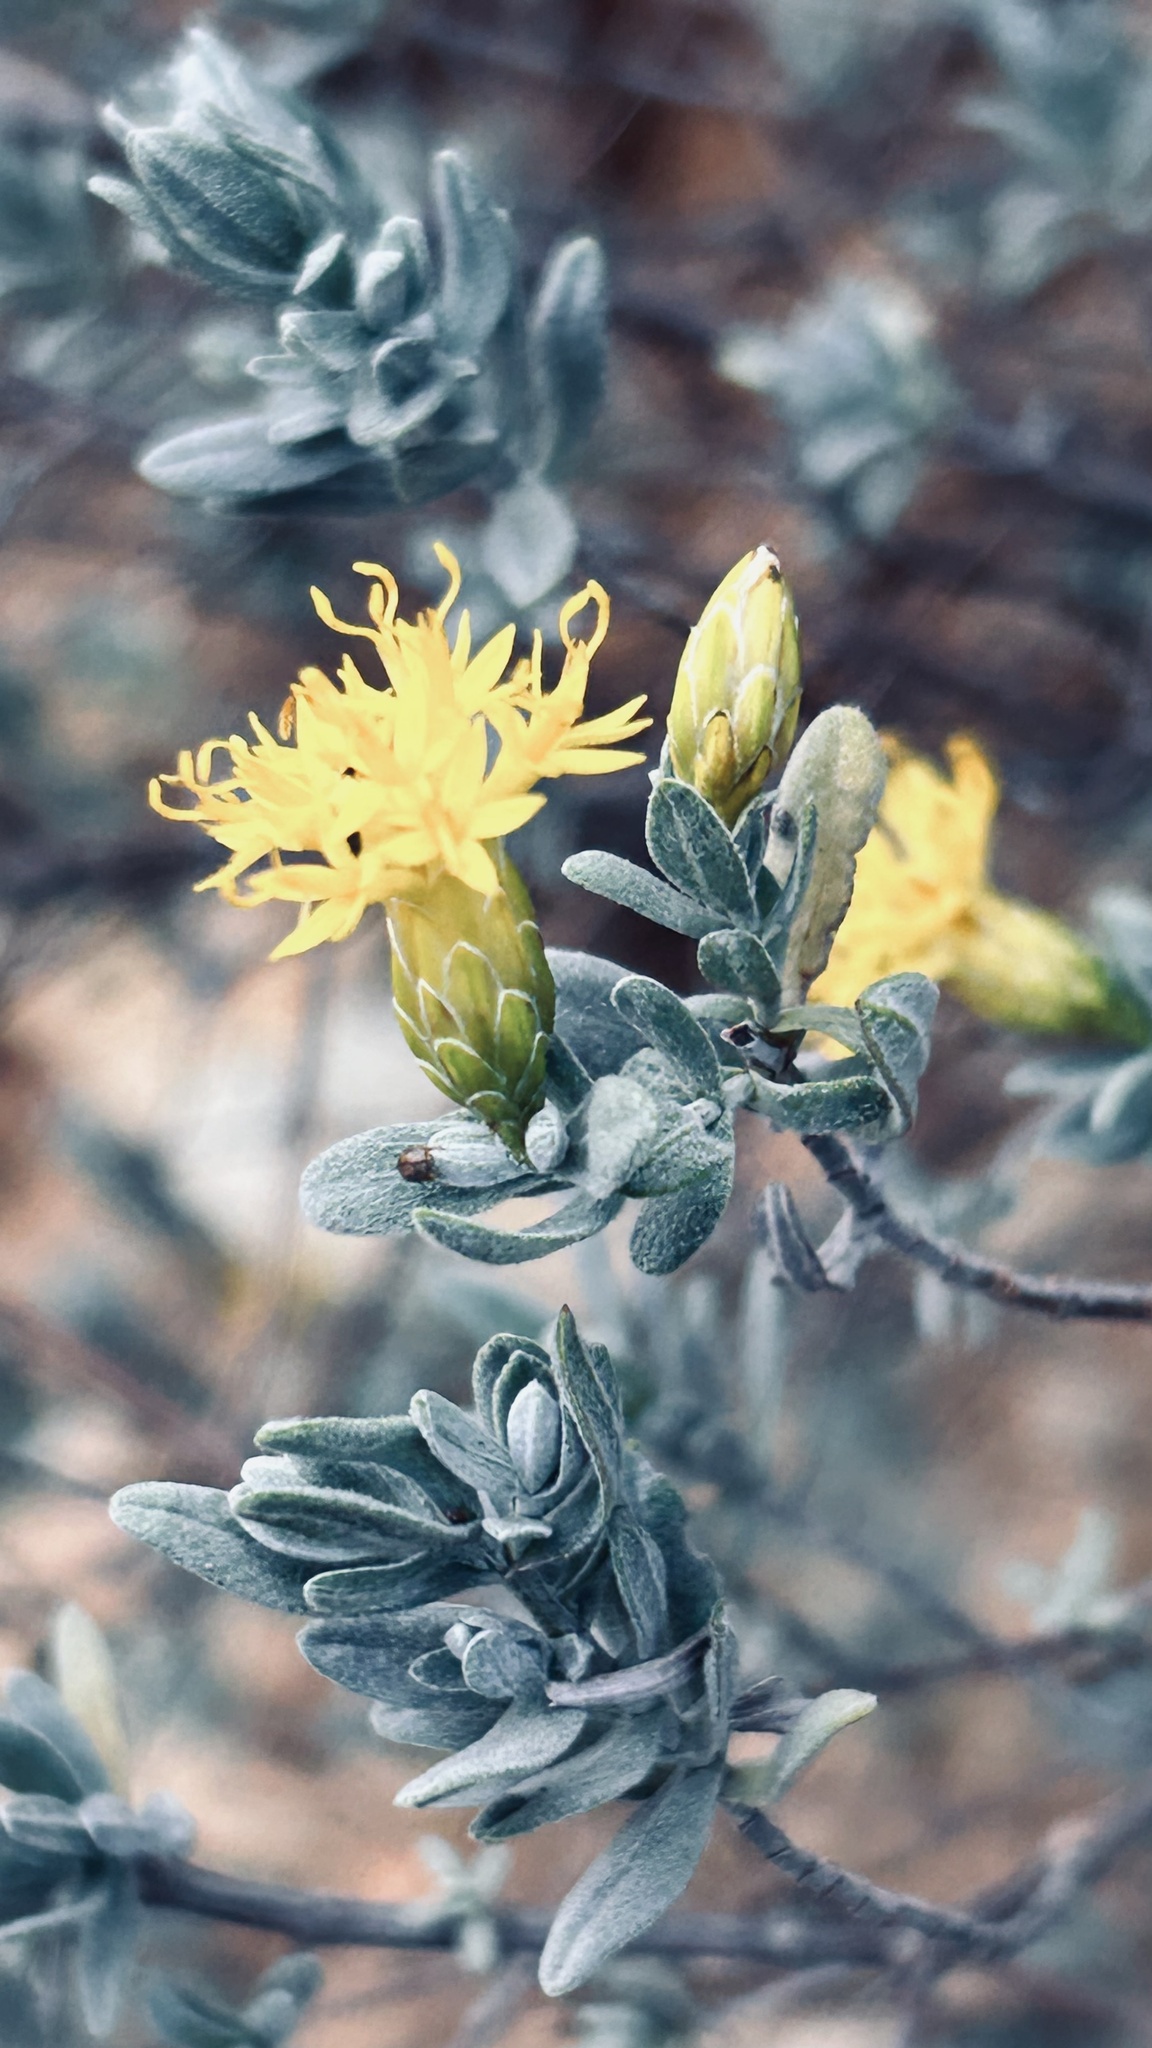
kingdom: Plantae
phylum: Tracheophyta
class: Magnoliopsida
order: Asterales
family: Asteraceae
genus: Pteronia
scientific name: Pteronia incana
